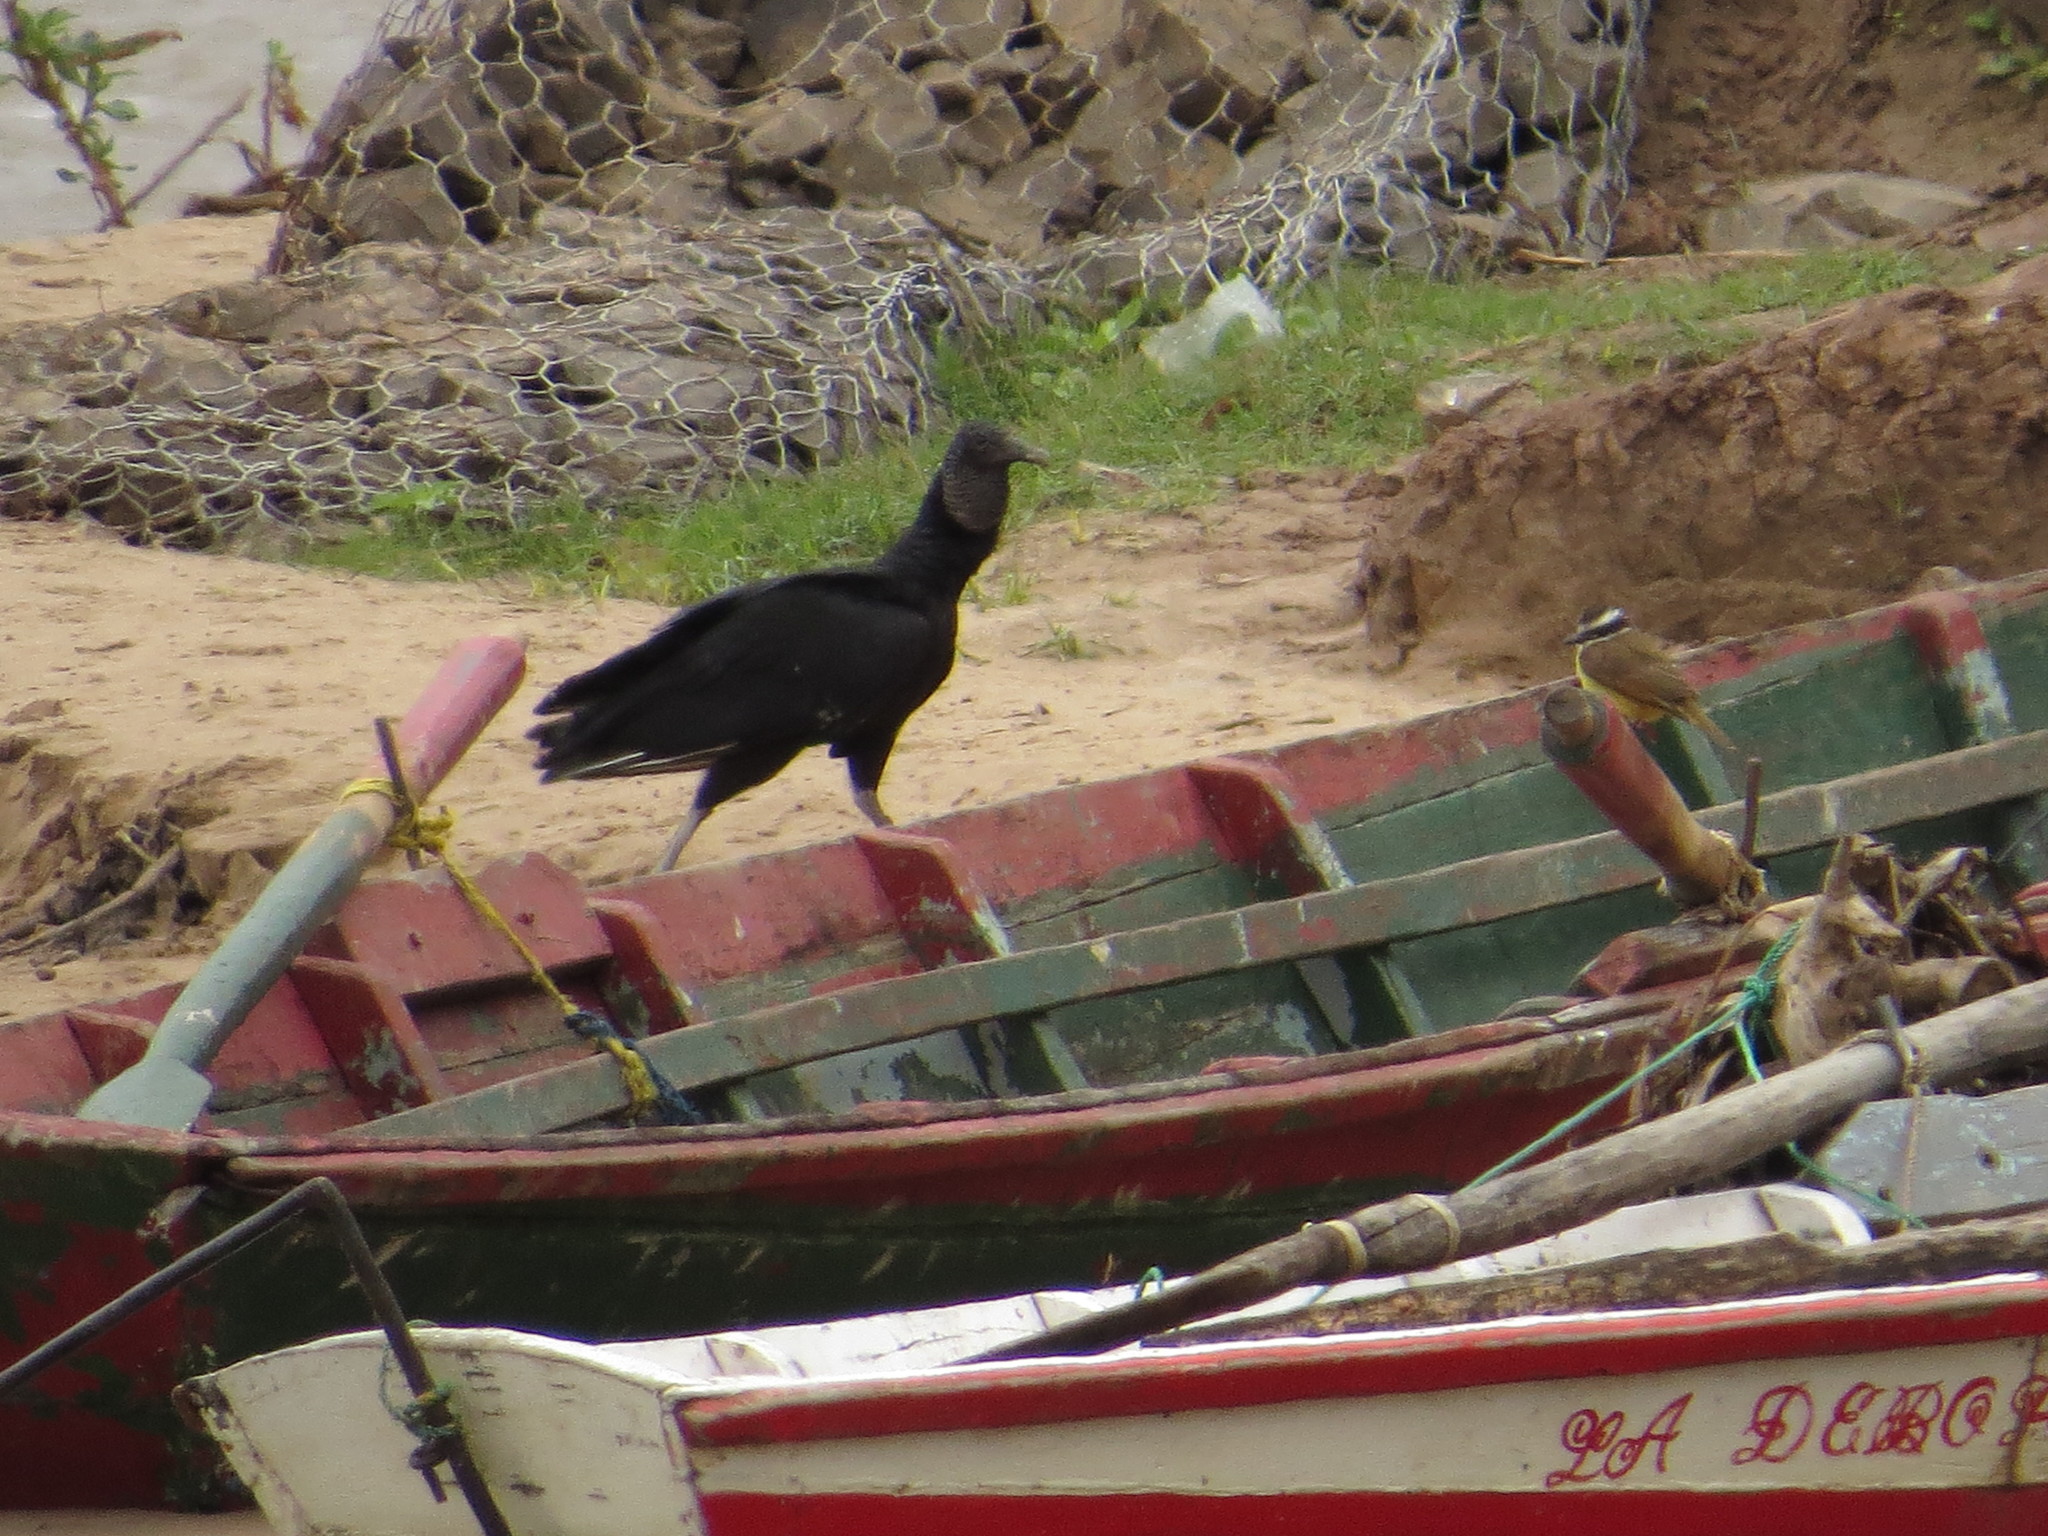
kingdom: Animalia
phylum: Chordata
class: Aves
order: Accipitriformes
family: Cathartidae
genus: Coragyps
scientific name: Coragyps atratus
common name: Black vulture
